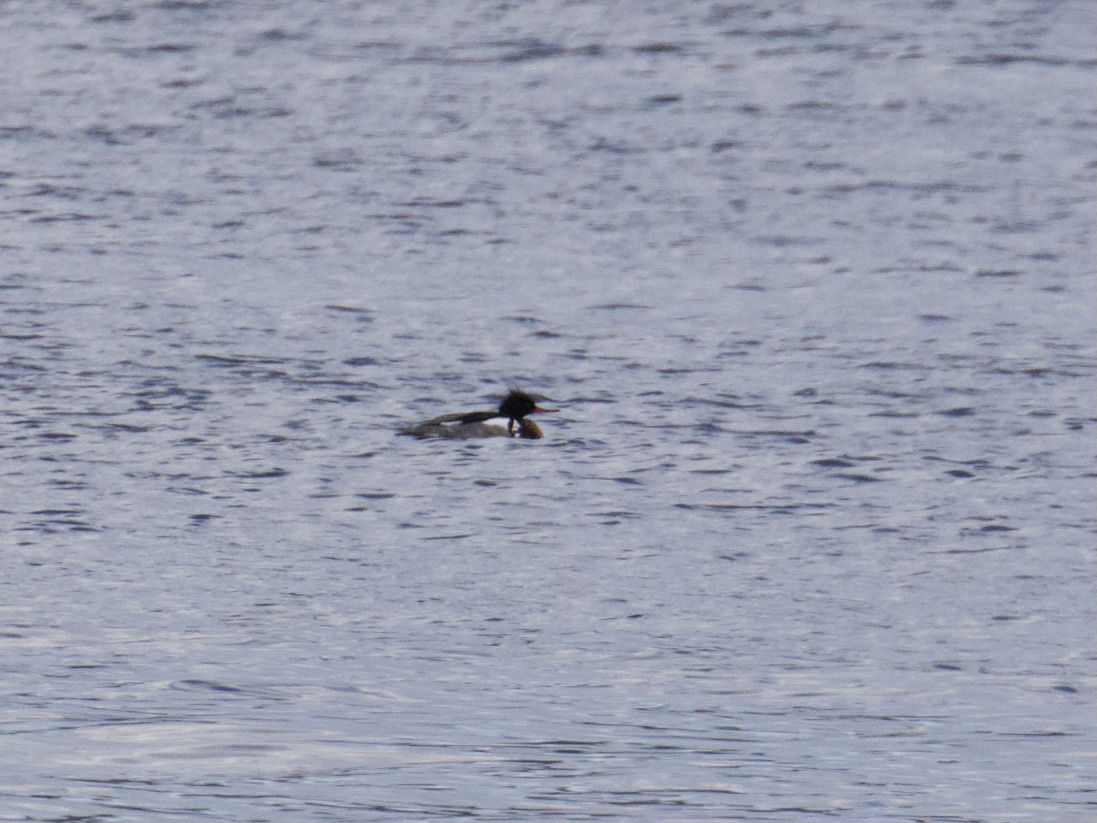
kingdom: Animalia
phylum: Chordata
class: Aves
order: Anseriformes
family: Anatidae
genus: Mergus
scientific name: Mergus serrator
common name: Red-breasted merganser
